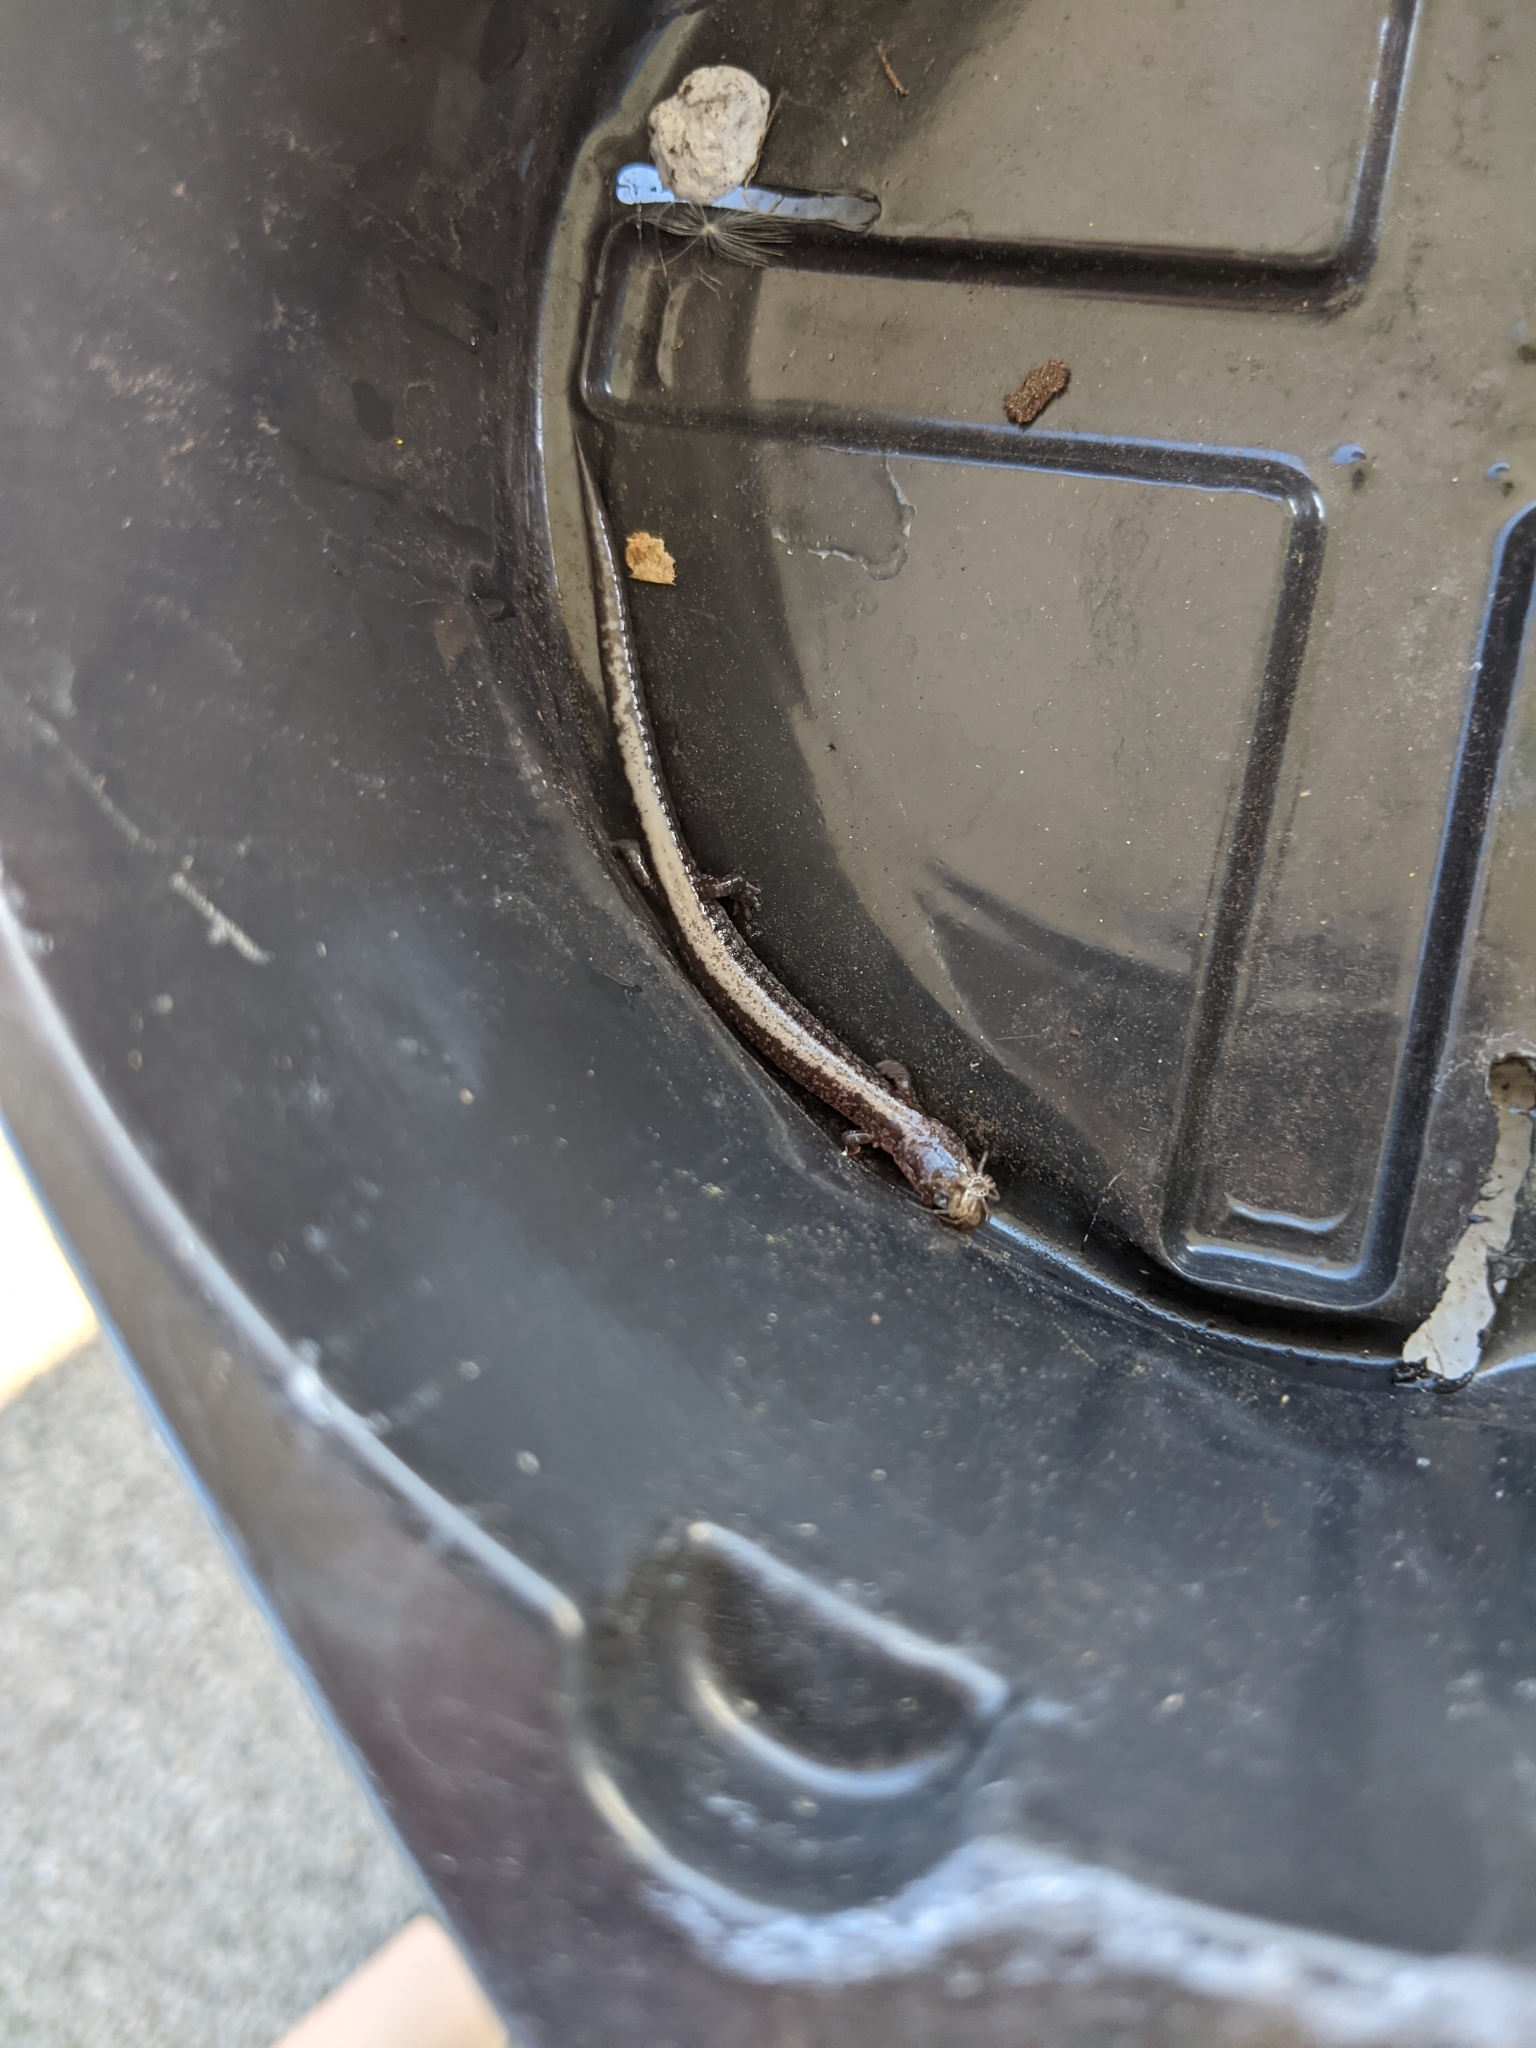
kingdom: Animalia
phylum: Chordata
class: Amphibia
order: Caudata
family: Plethodontidae
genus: Plethodon
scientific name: Plethodon cinereus
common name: Redback salamander
